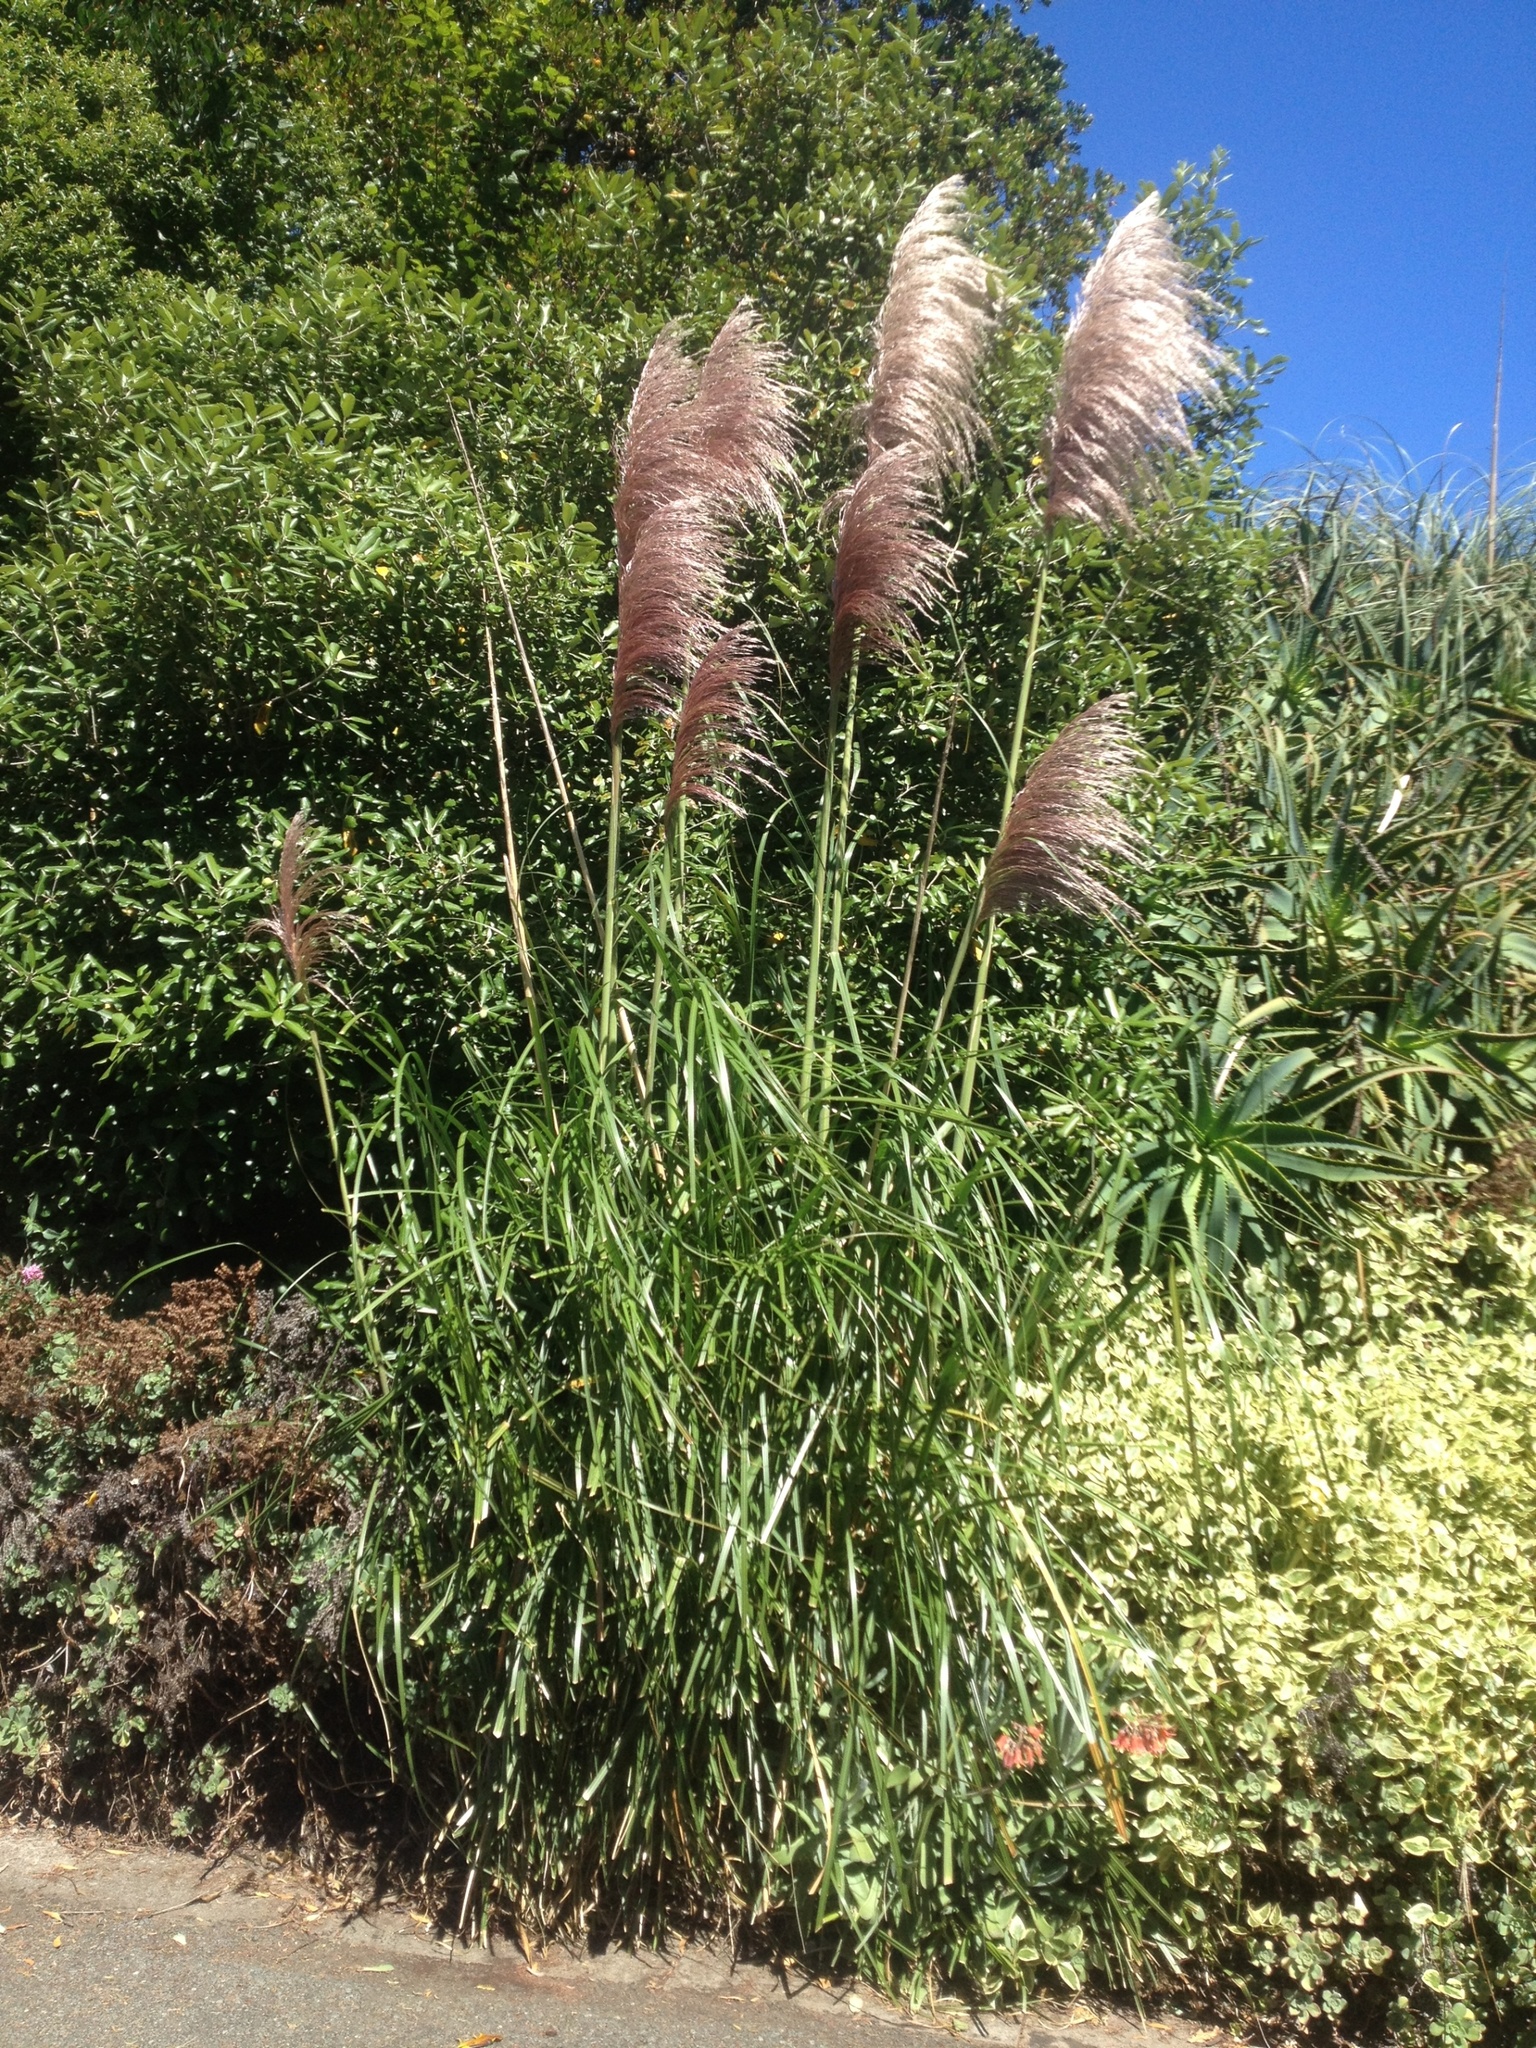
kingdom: Plantae
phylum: Tracheophyta
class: Liliopsida
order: Poales
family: Poaceae
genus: Cortaderia
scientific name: Cortaderia jubata
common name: Purple pampas grass
